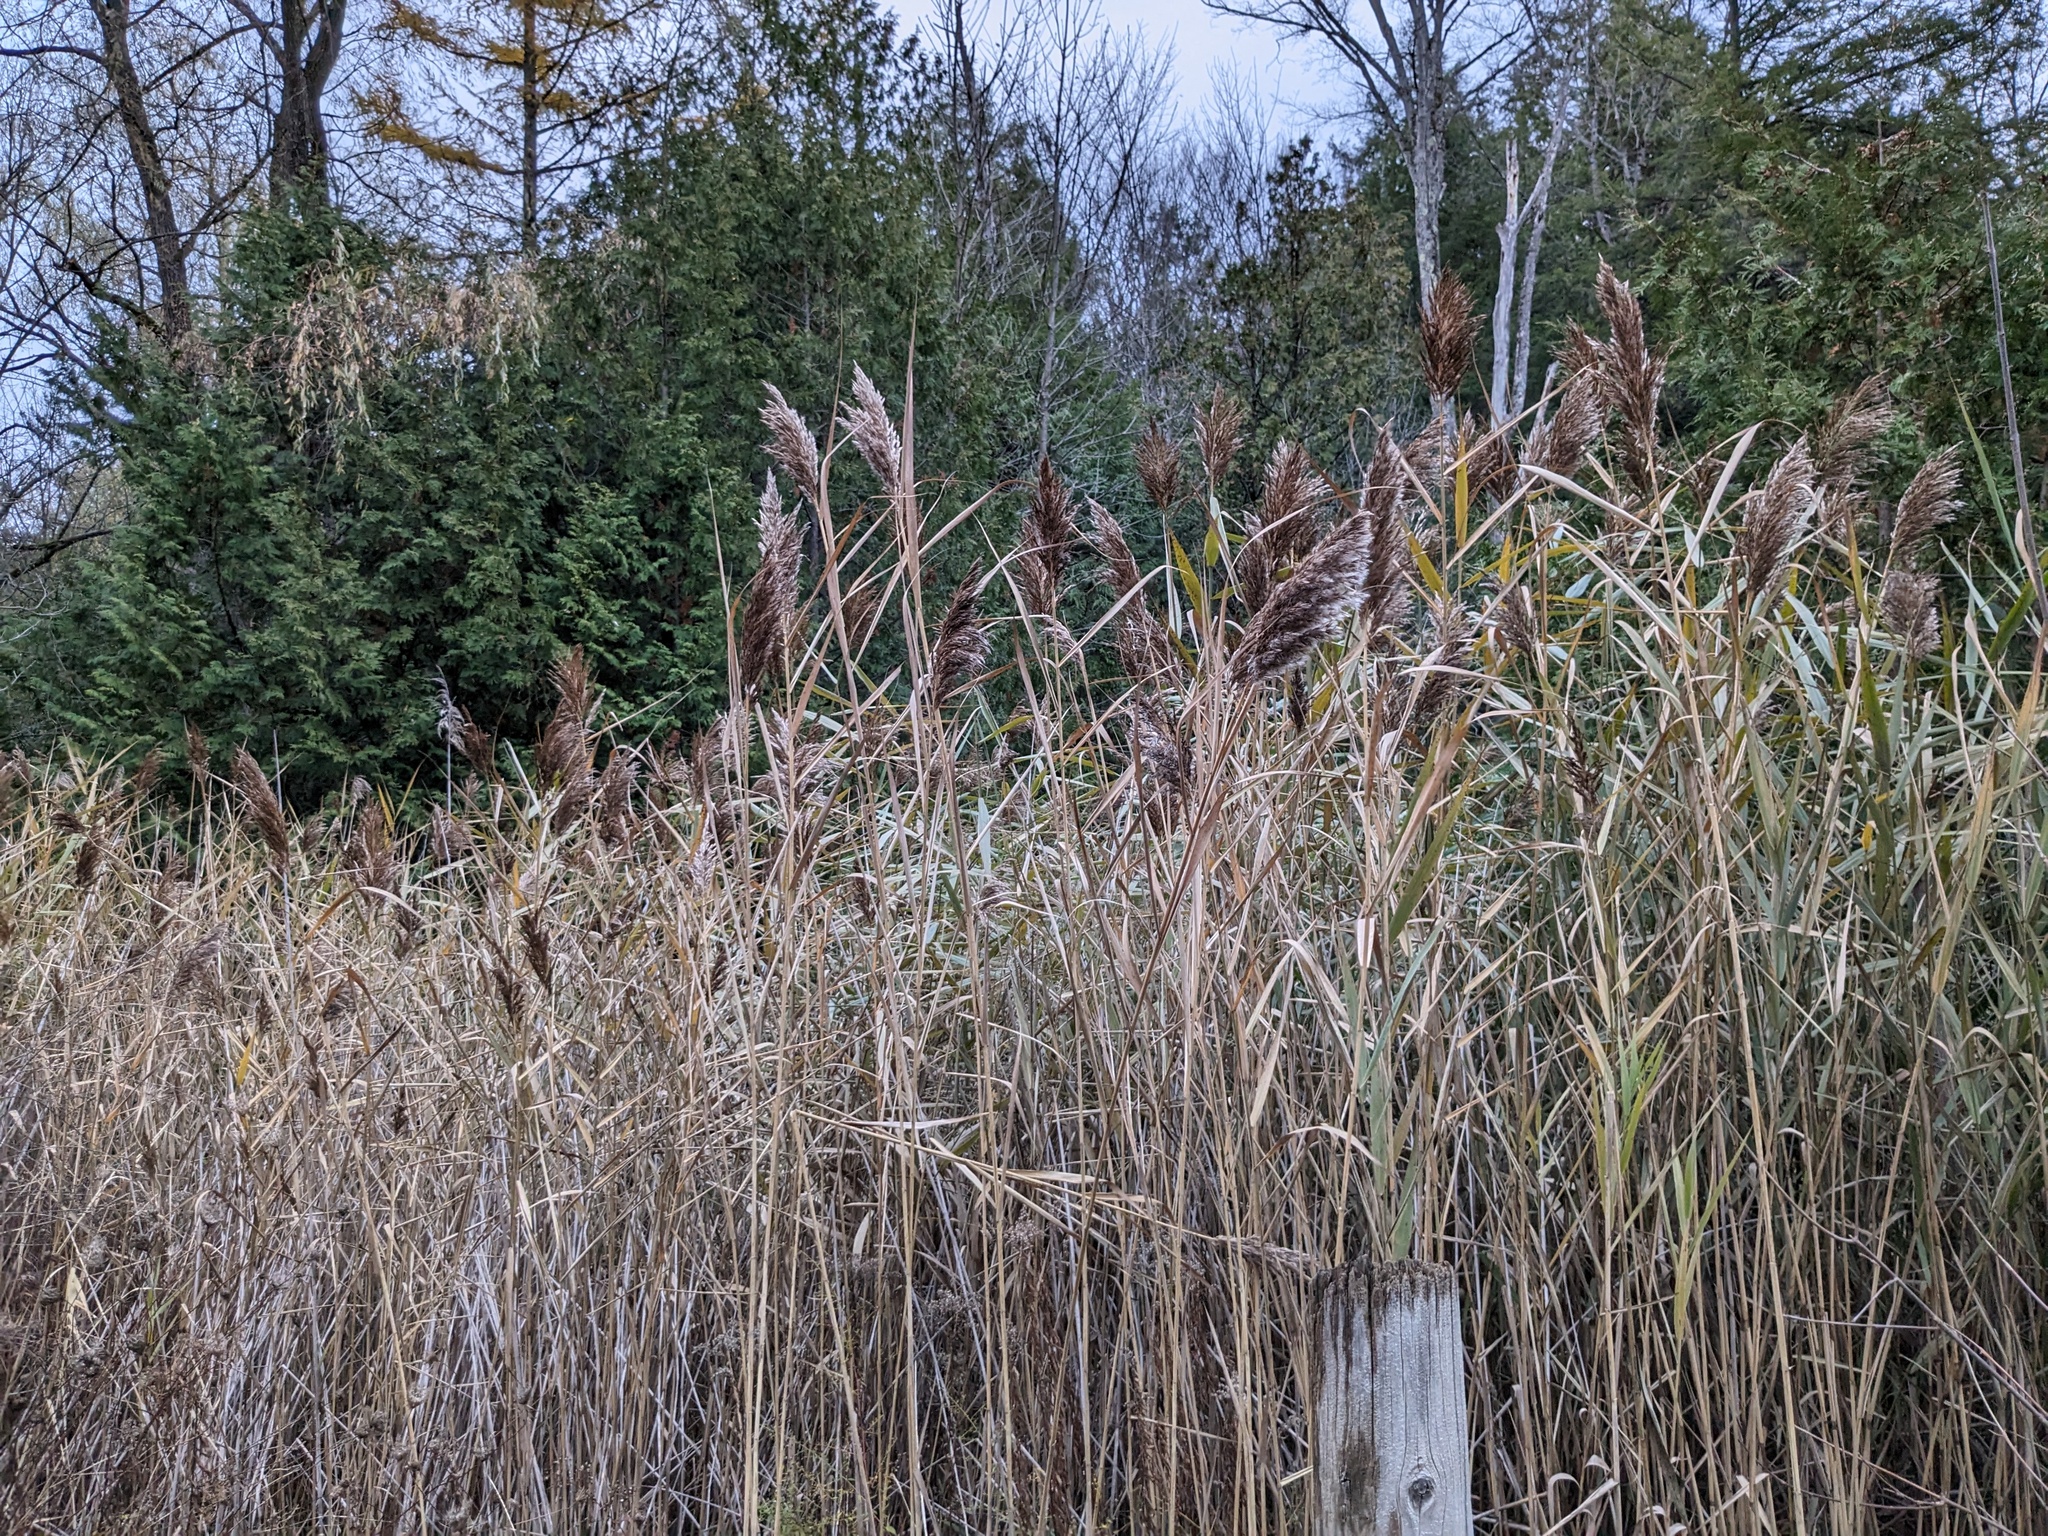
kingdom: Plantae
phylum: Tracheophyta
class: Liliopsida
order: Poales
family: Poaceae
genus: Phragmites
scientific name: Phragmites australis
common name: Common reed
